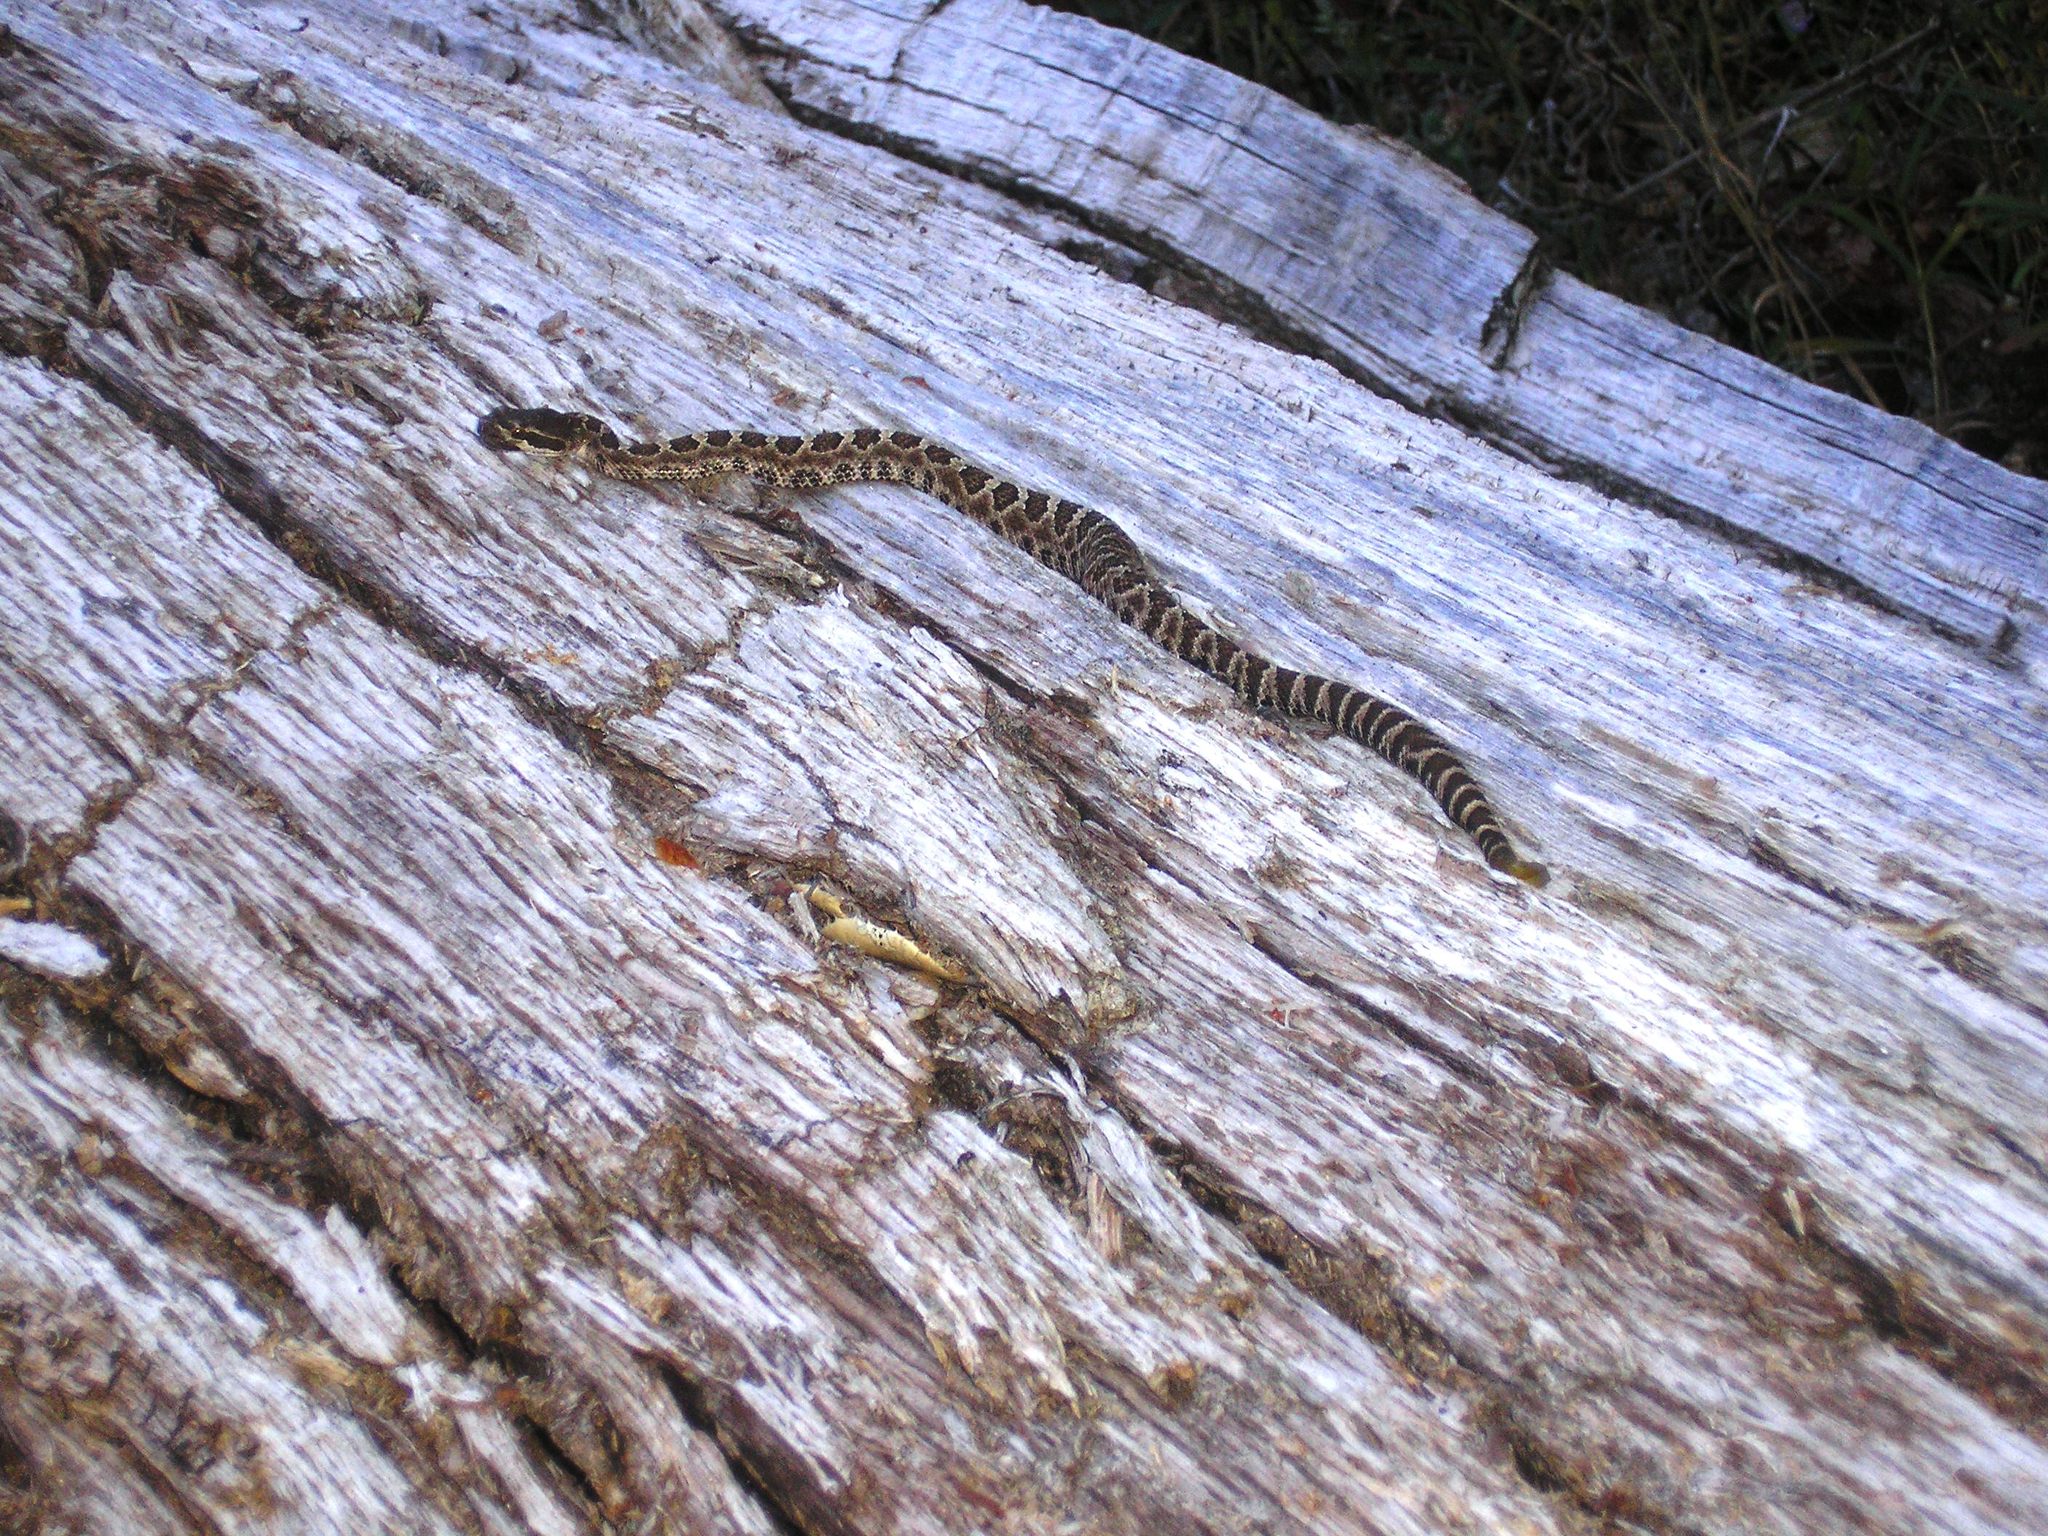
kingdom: Animalia
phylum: Chordata
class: Squamata
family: Viperidae
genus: Crotalus
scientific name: Crotalus oreganus
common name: Abyssus
